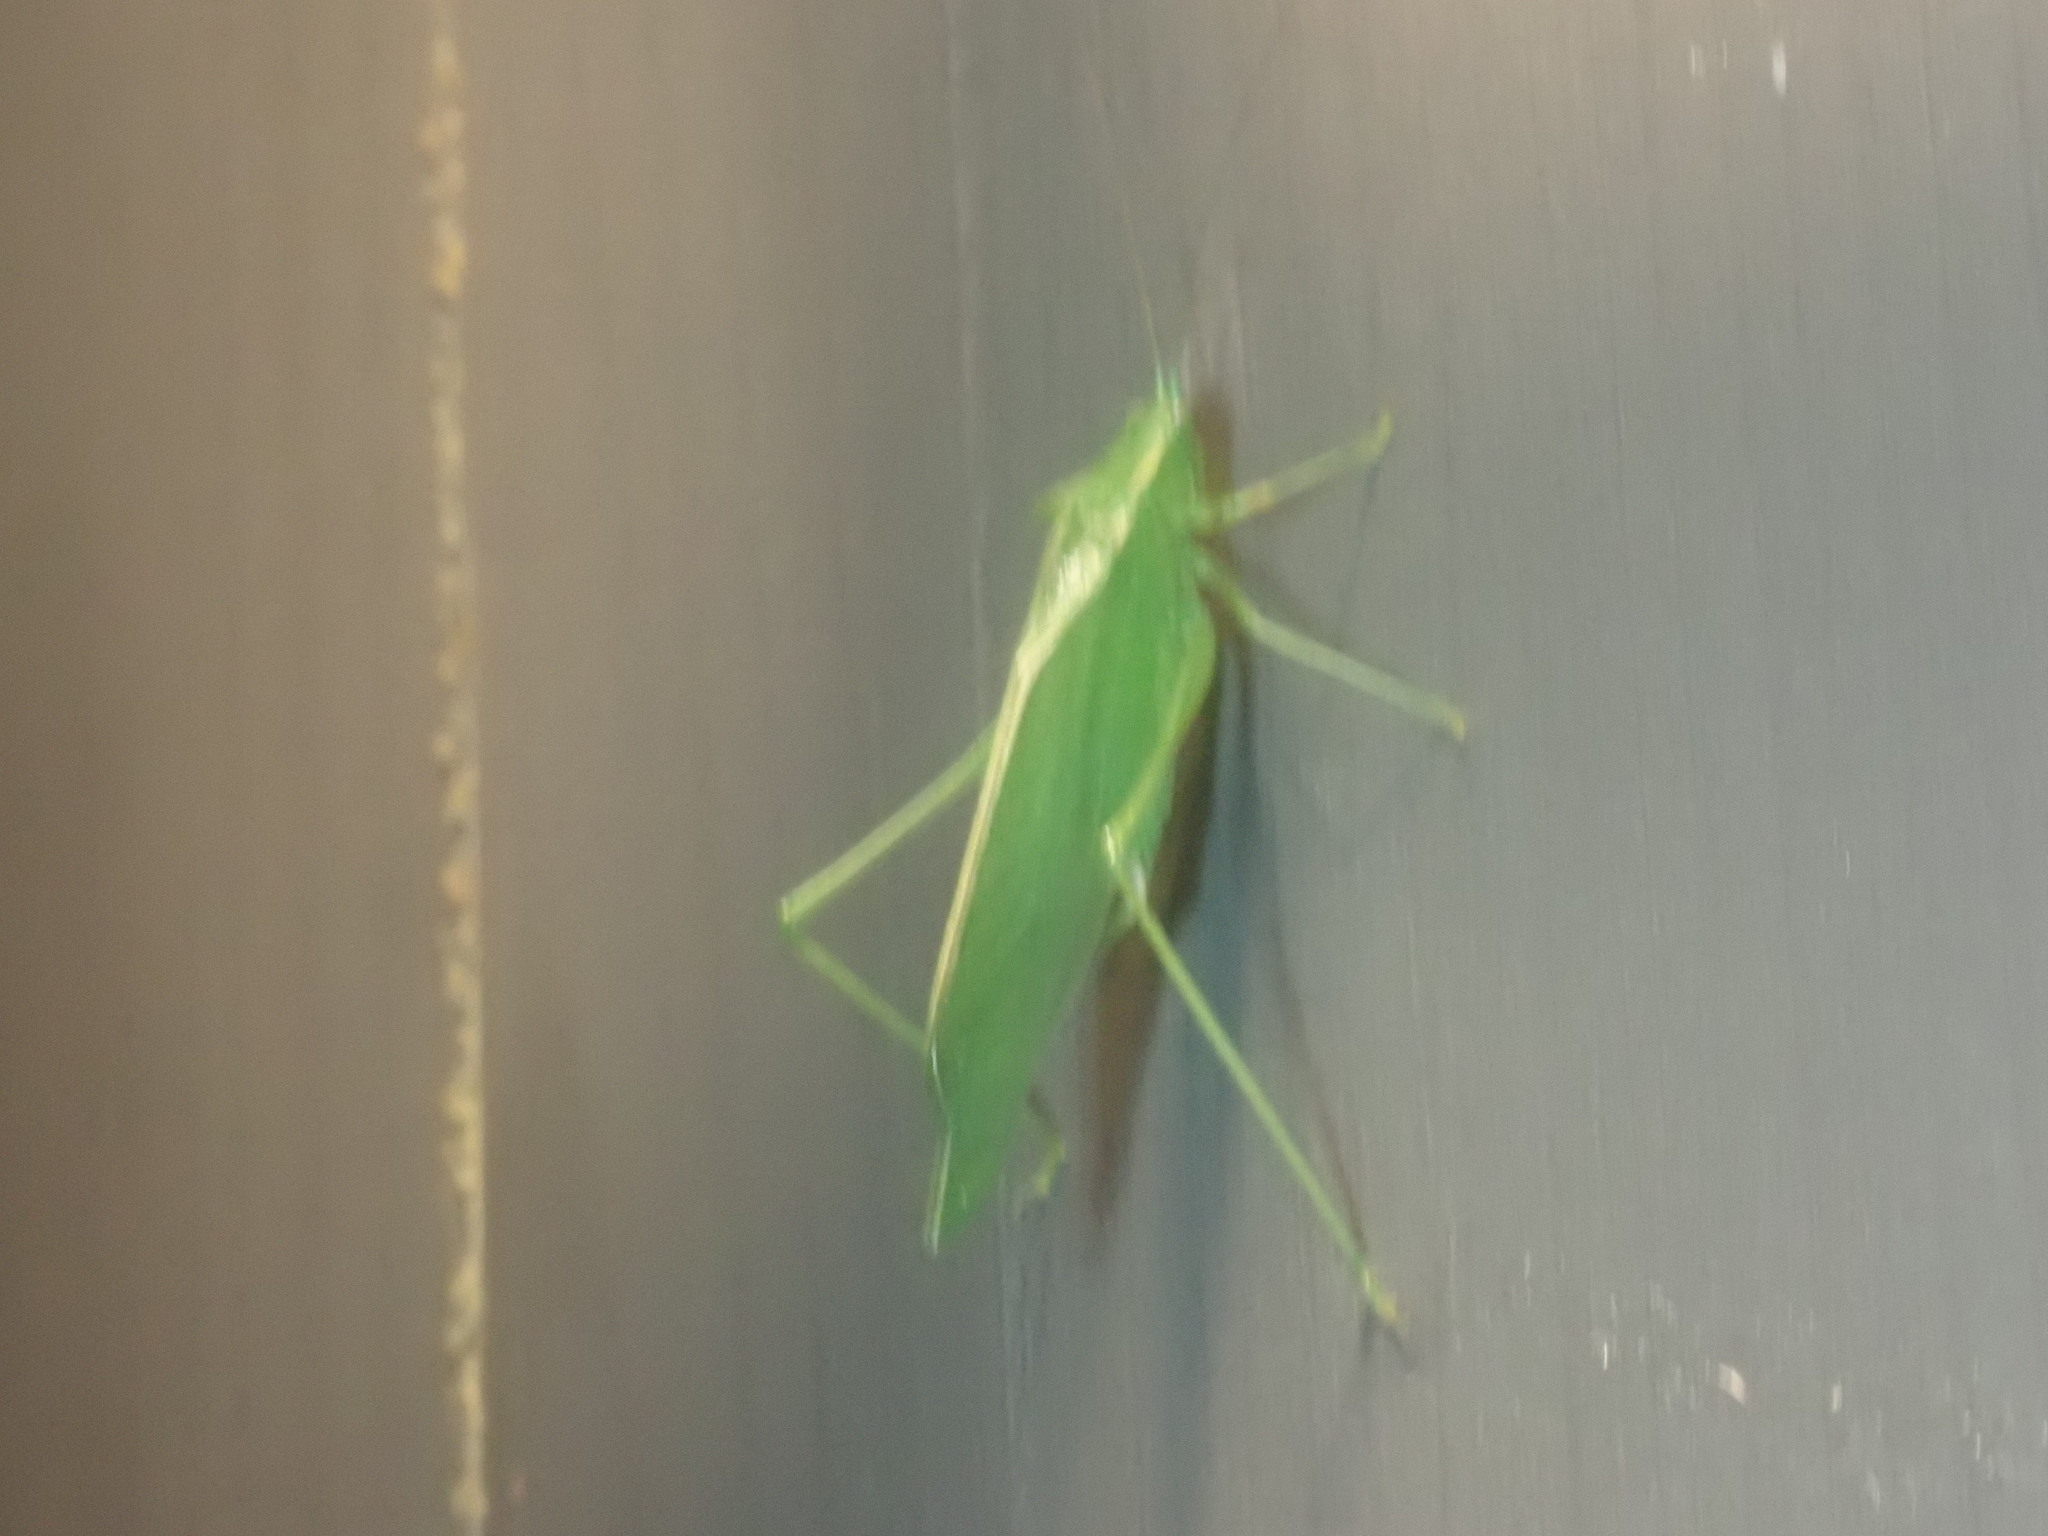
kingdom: Animalia
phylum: Arthropoda
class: Insecta
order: Orthoptera
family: Tettigoniidae
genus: Scudderia
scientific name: Scudderia
